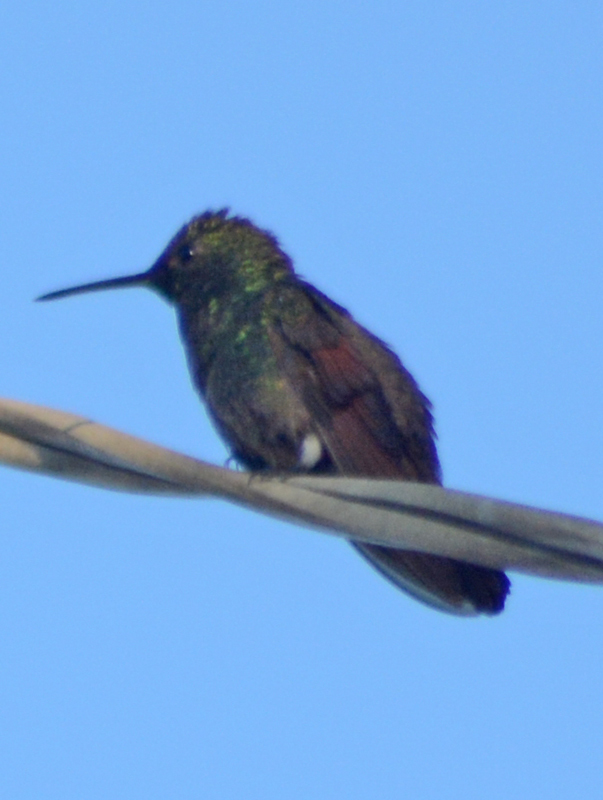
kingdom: Animalia
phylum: Chordata
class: Aves
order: Apodiformes
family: Trochilidae
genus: Saucerottia
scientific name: Saucerottia beryllina
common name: Berylline hummingbird
